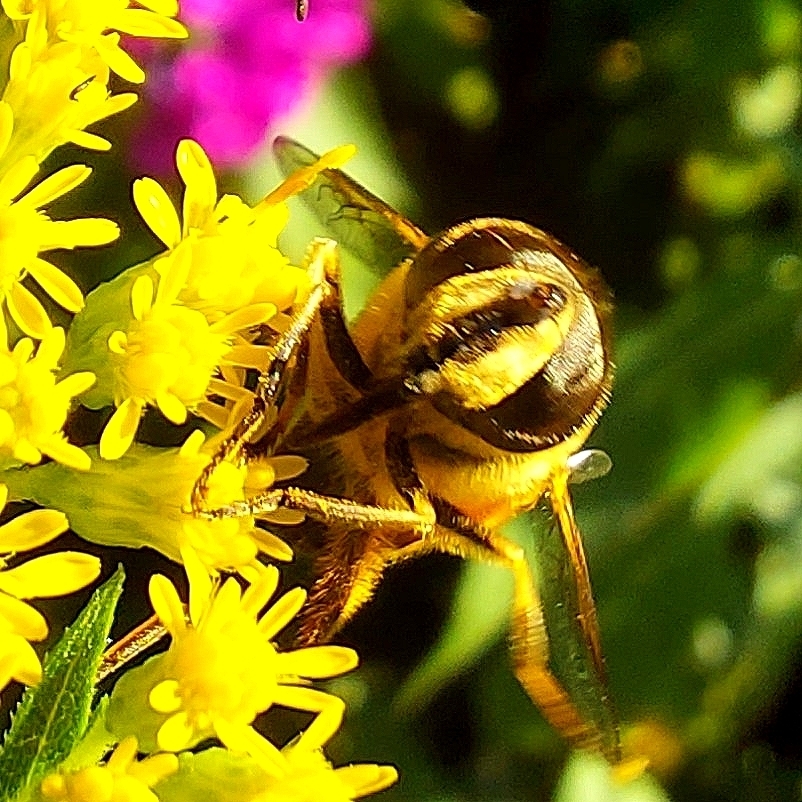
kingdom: Animalia
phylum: Arthropoda
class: Insecta
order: Diptera
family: Syrphidae
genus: Eristalis
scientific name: Eristalis tenax
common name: Drone fly
